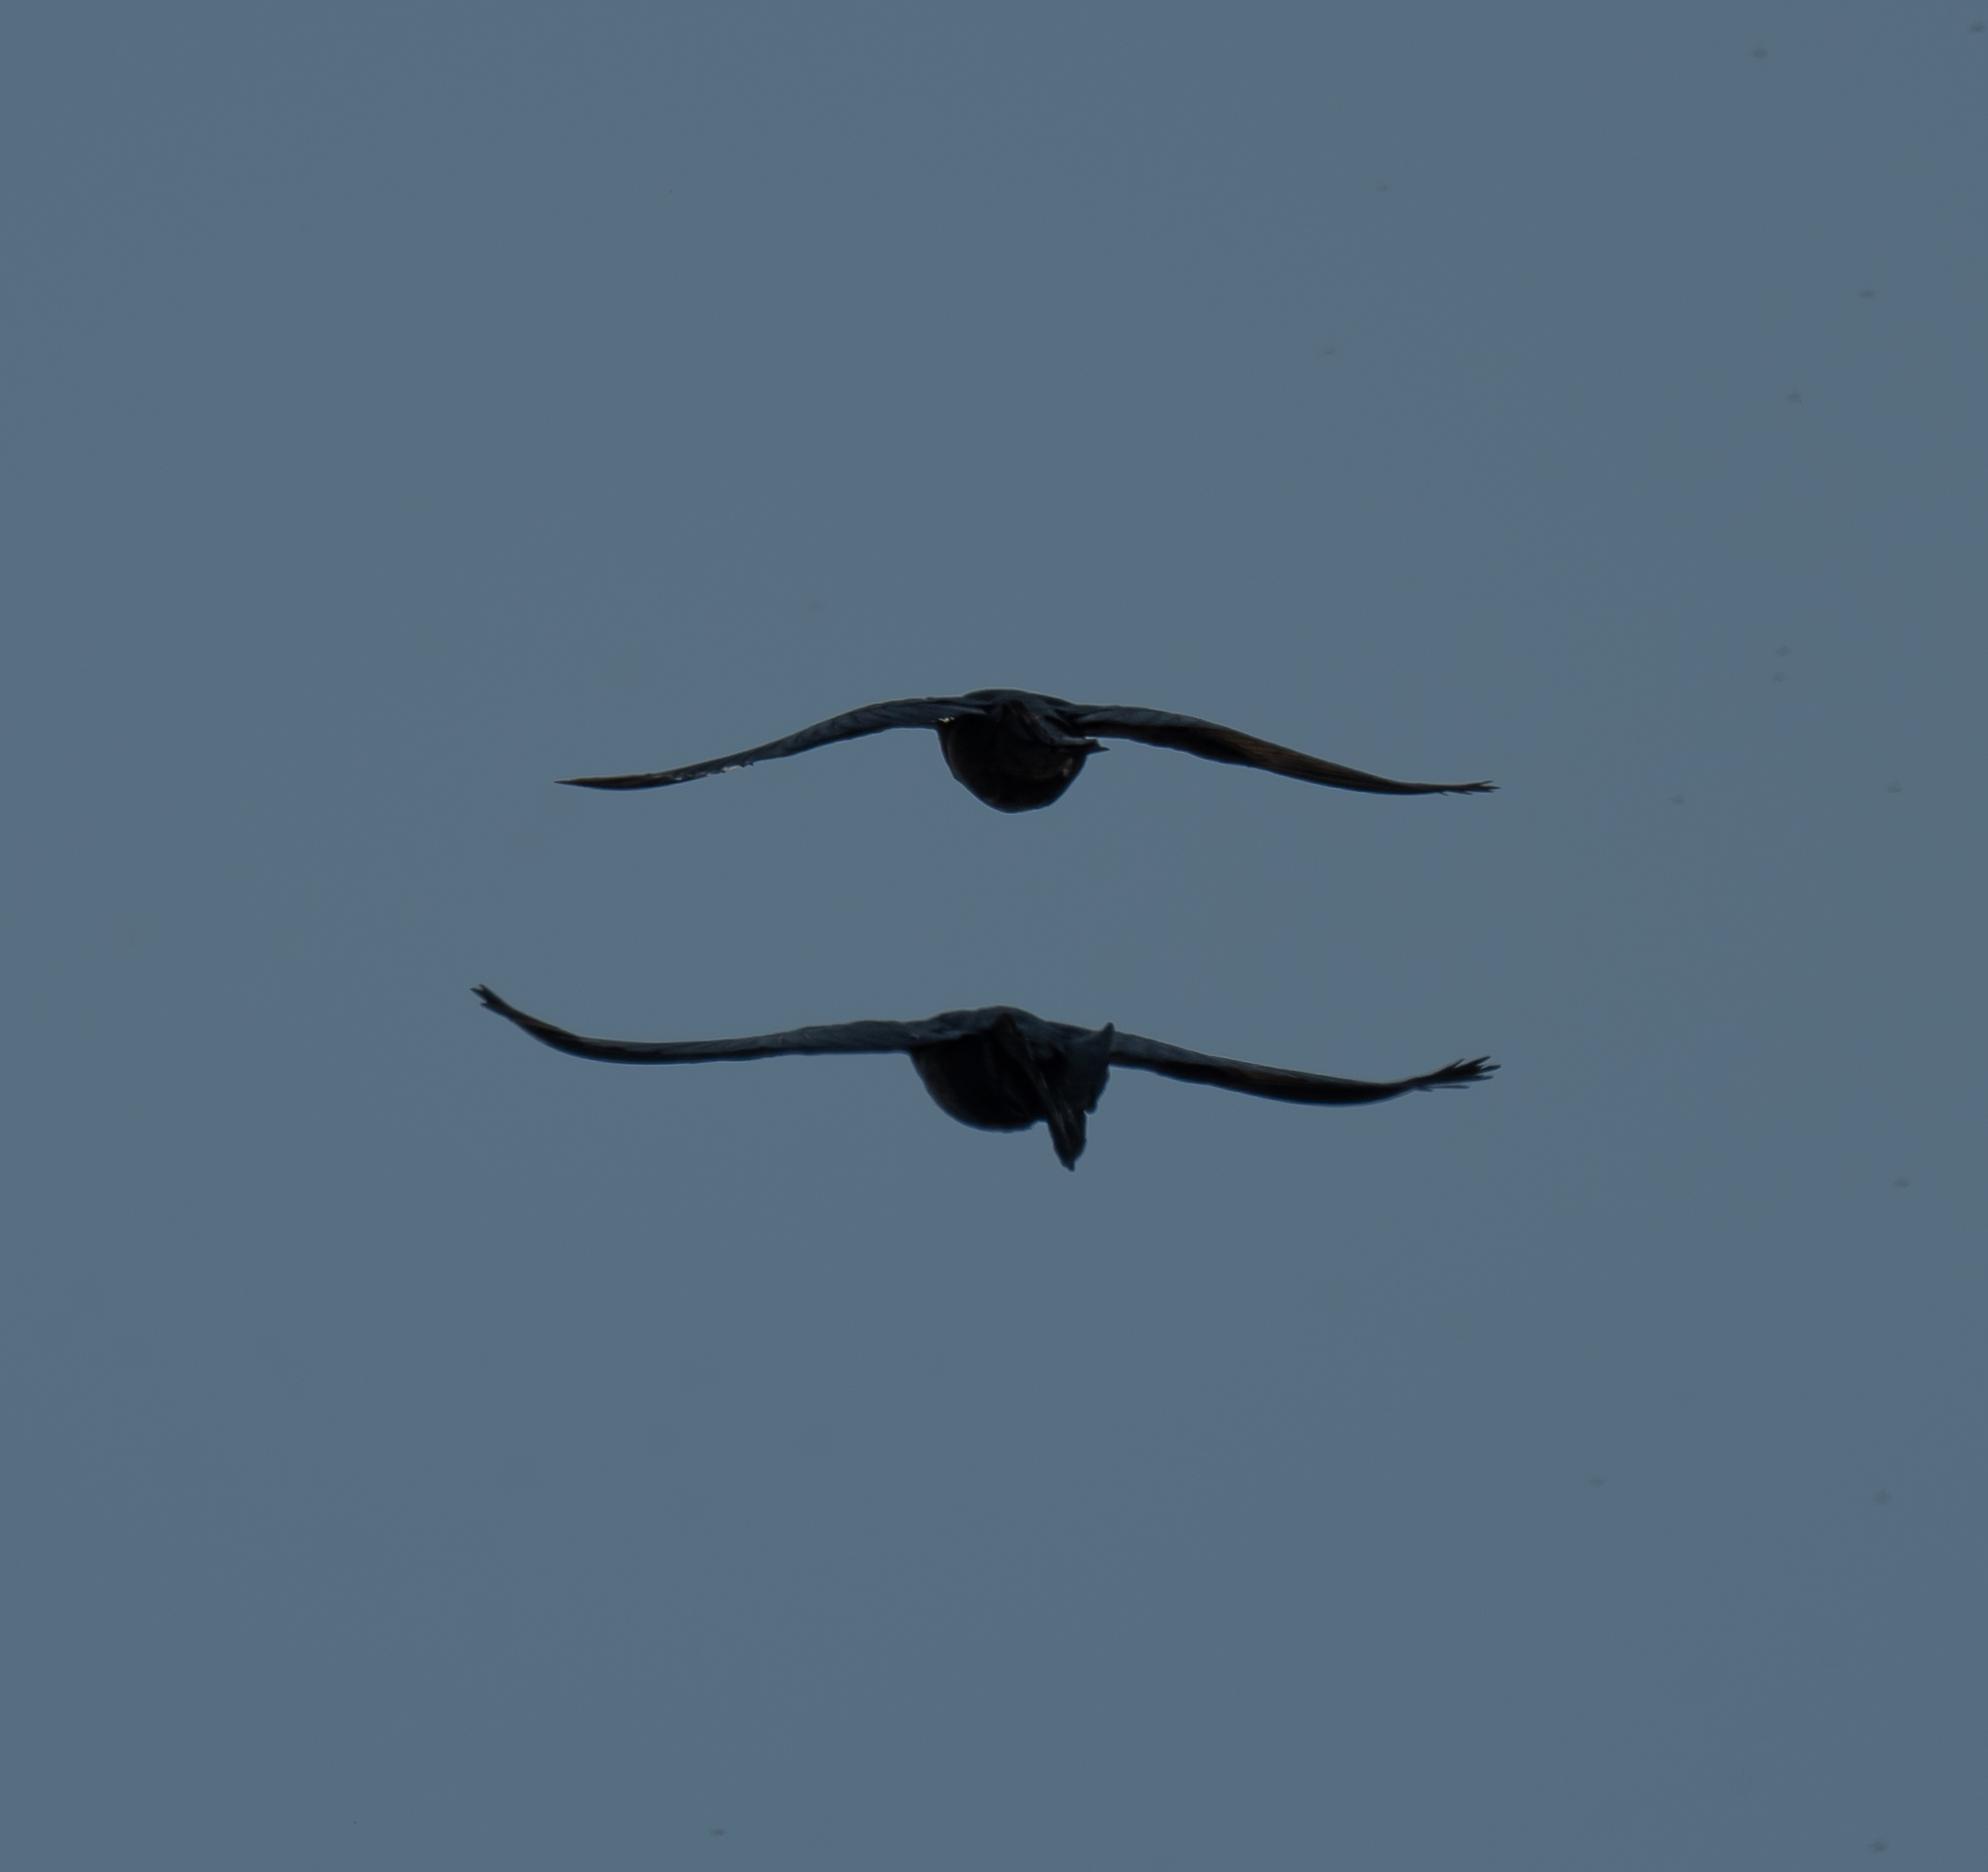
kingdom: Animalia
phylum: Chordata
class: Aves
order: Passeriformes
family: Icteridae
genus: Quiscalus
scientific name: Quiscalus mexicanus
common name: Great-tailed grackle
